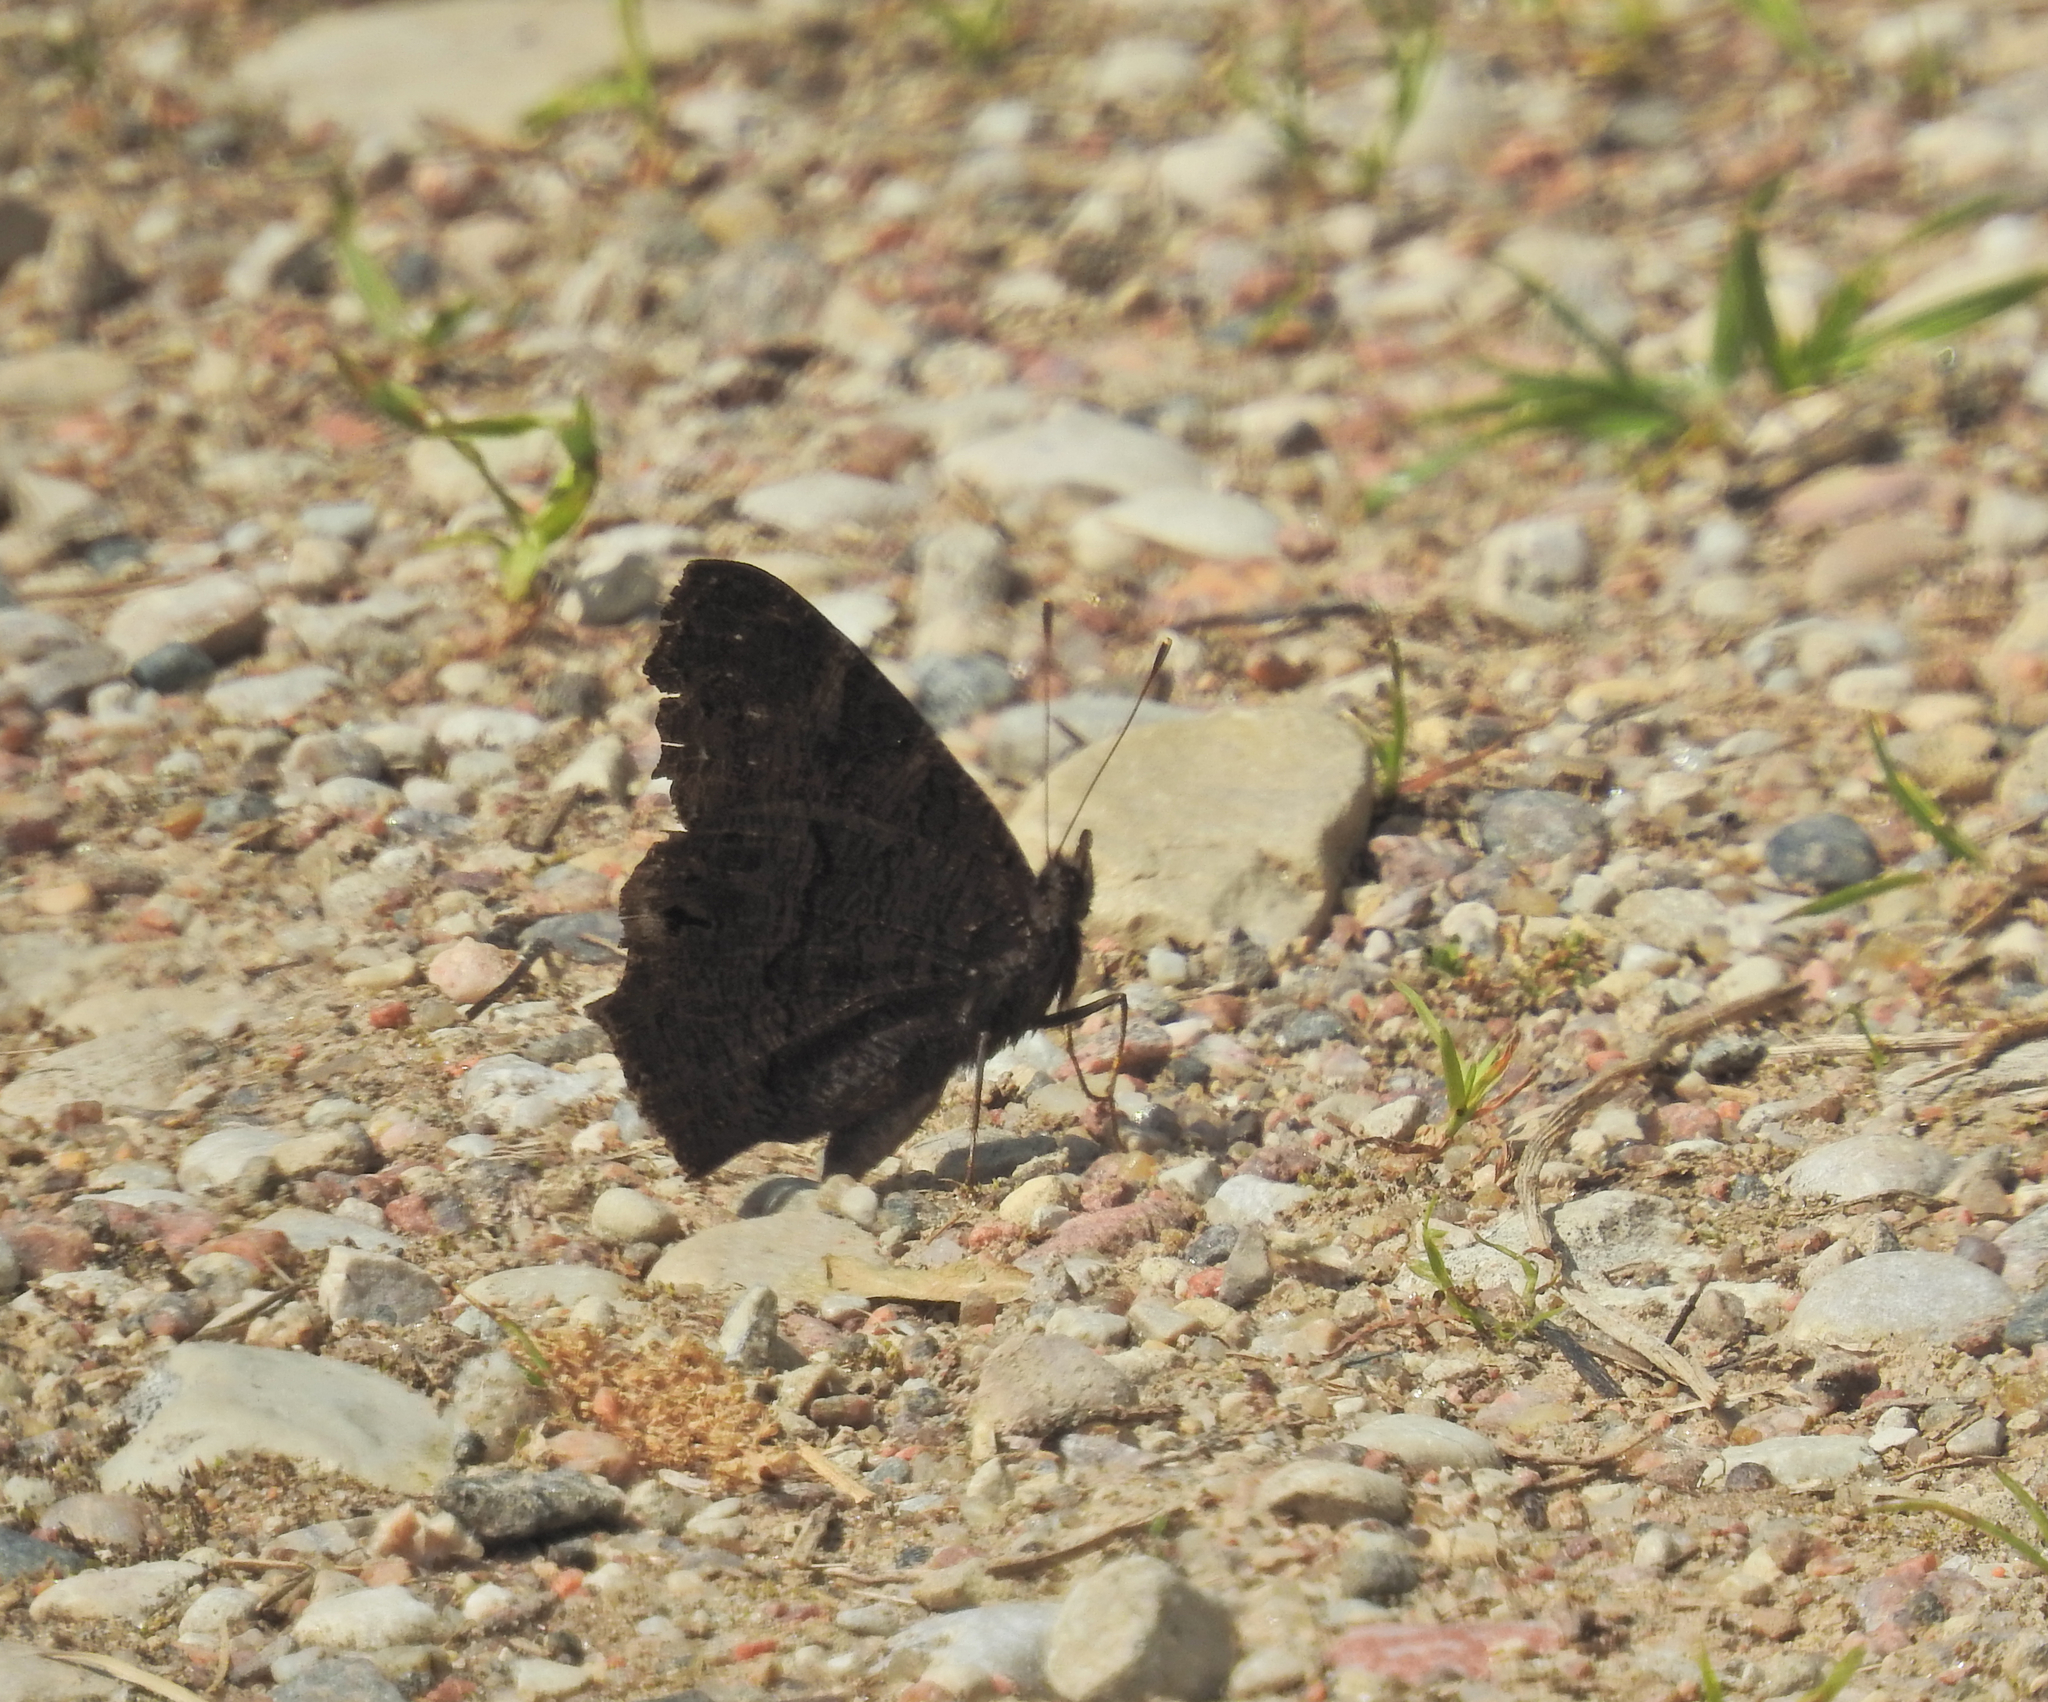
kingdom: Animalia
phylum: Arthropoda
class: Insecta
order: Lepidoptera
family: Nymphalidae
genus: Aglais
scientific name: Aglais io
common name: Peacock
